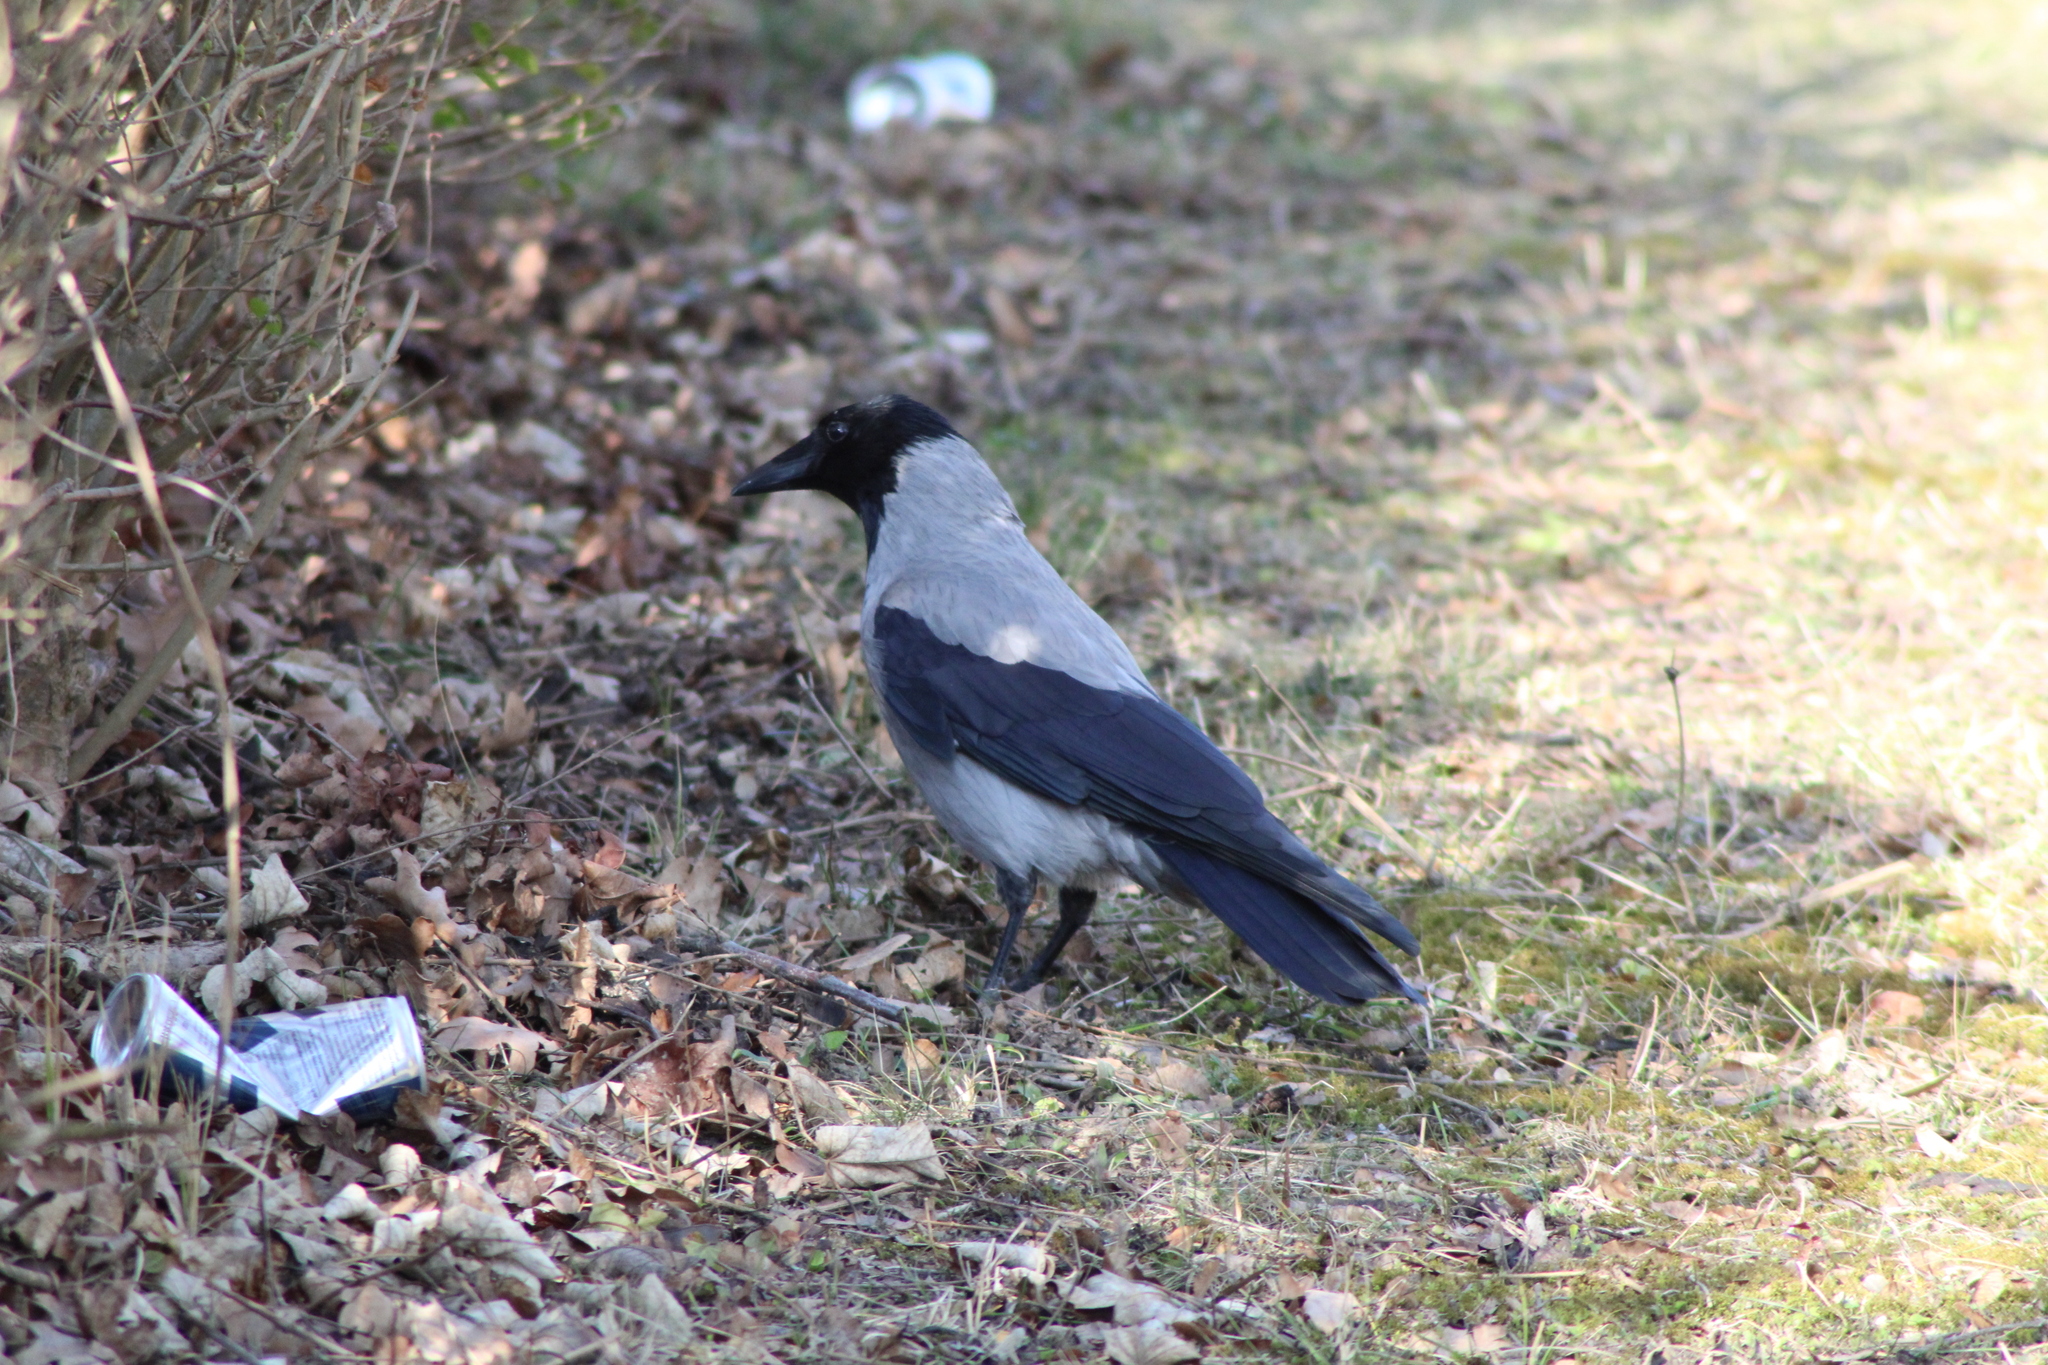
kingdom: Animalia
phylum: Chordata
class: Aves
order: Passeriformes
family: Corvidae
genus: Corvus
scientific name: Corvus cornix
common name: Hooded crow
